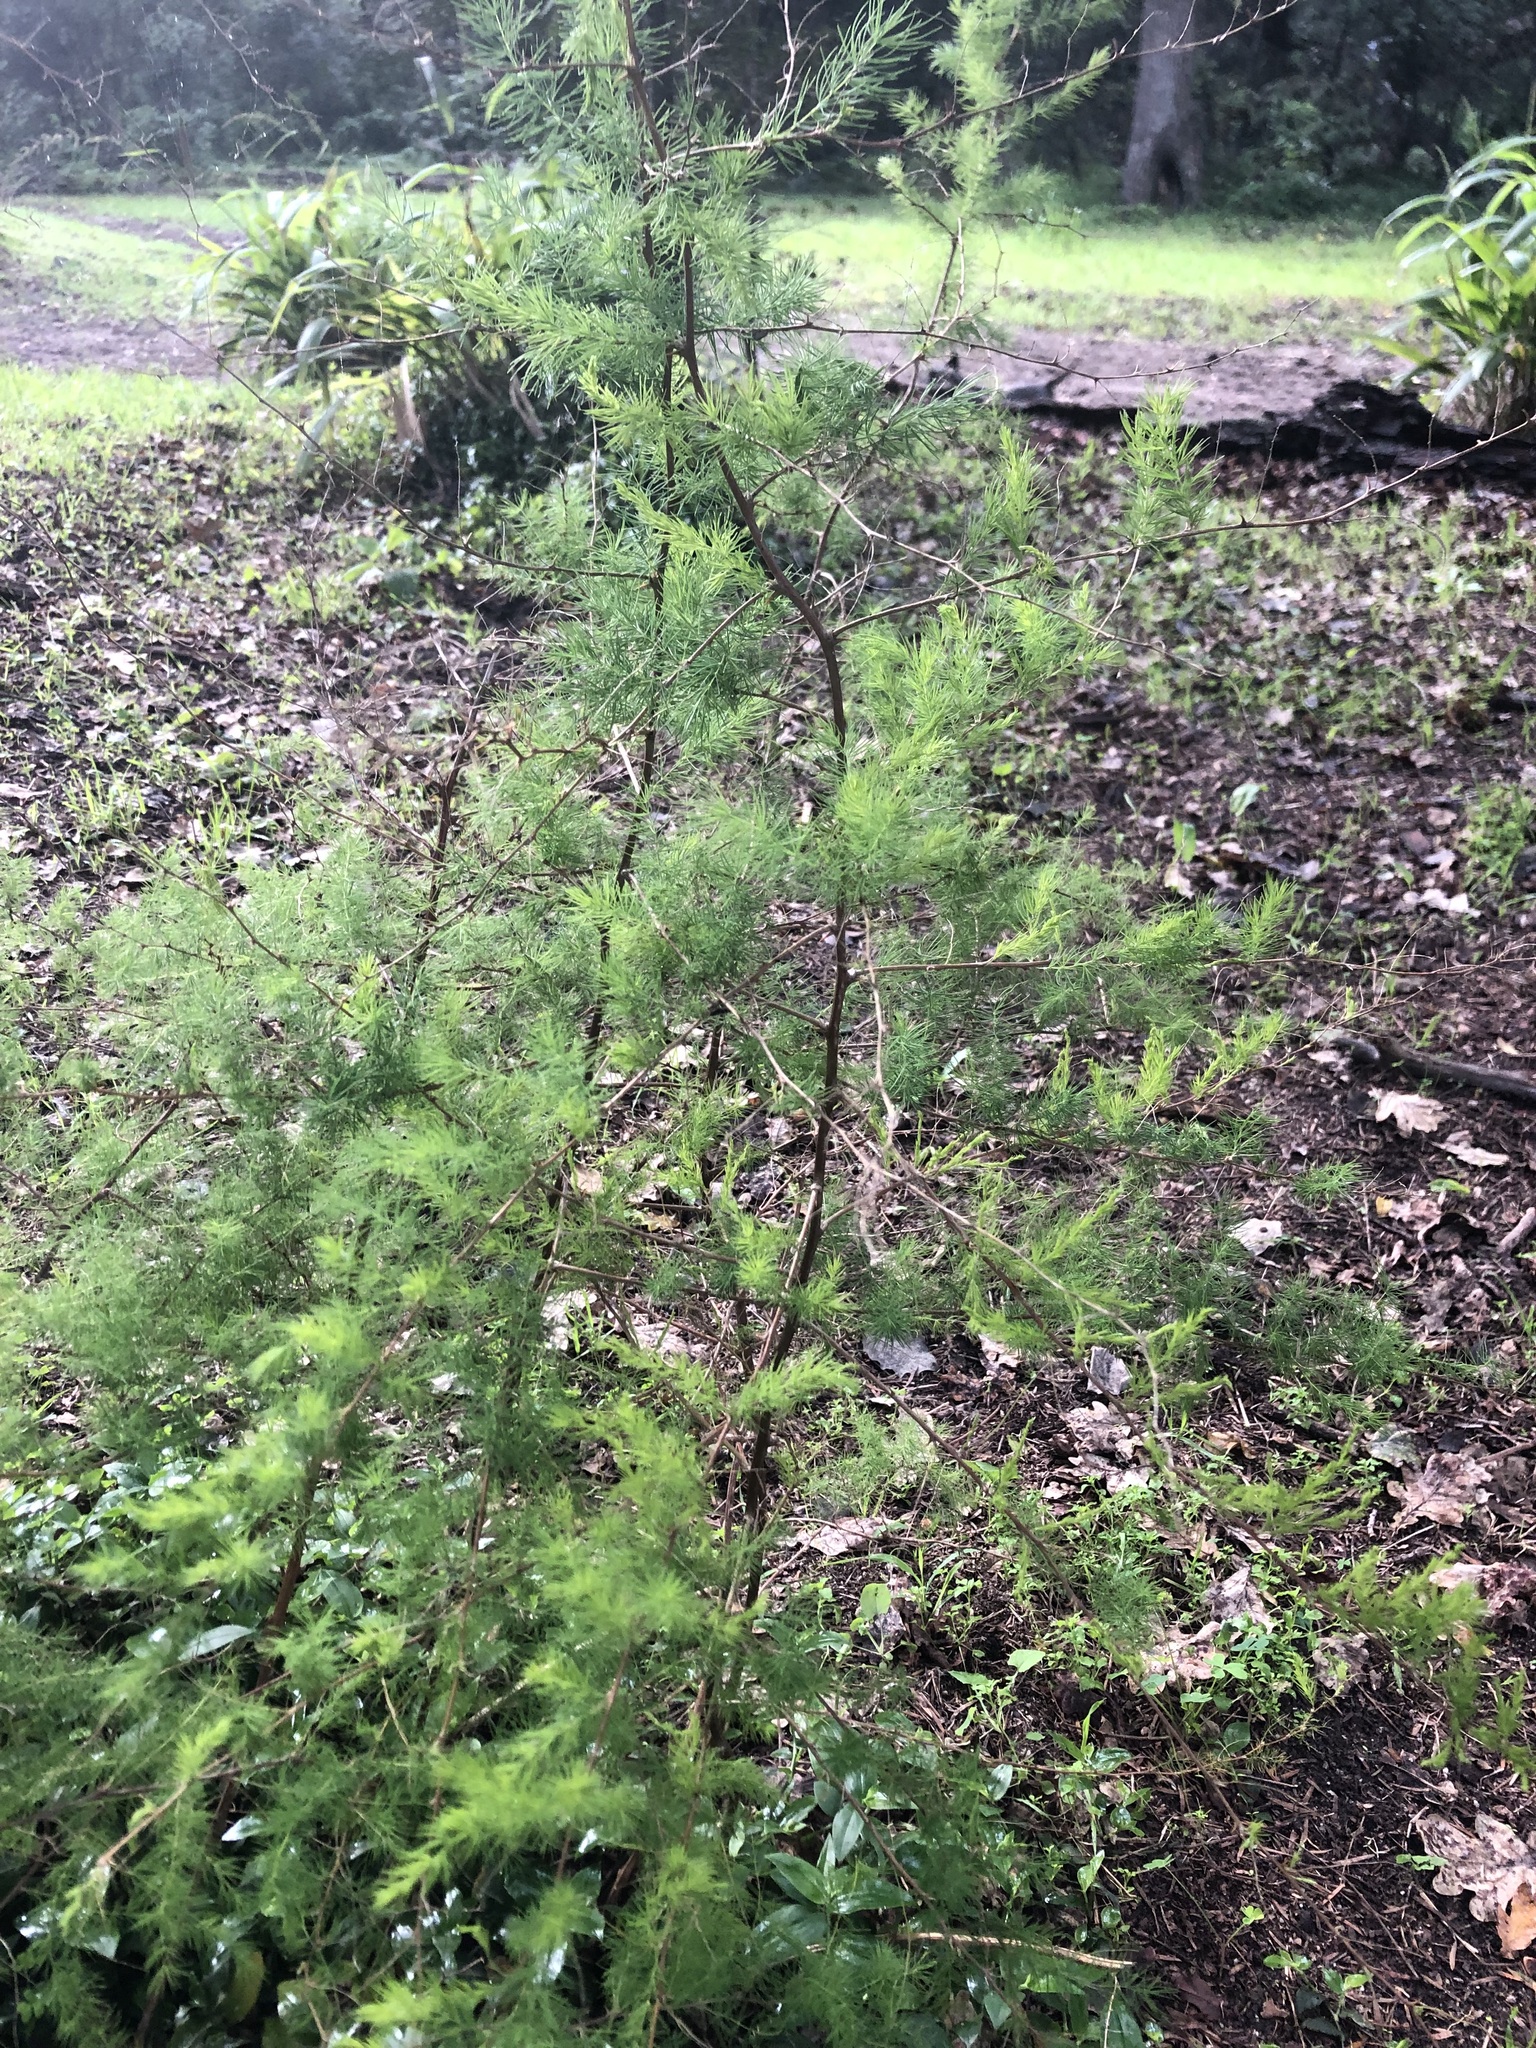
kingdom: Plantae
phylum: Tracheophyta
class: Liliopsida
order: Asparagales
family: Asparagaceae
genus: Asparagus
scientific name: Asparagus rubicundus
